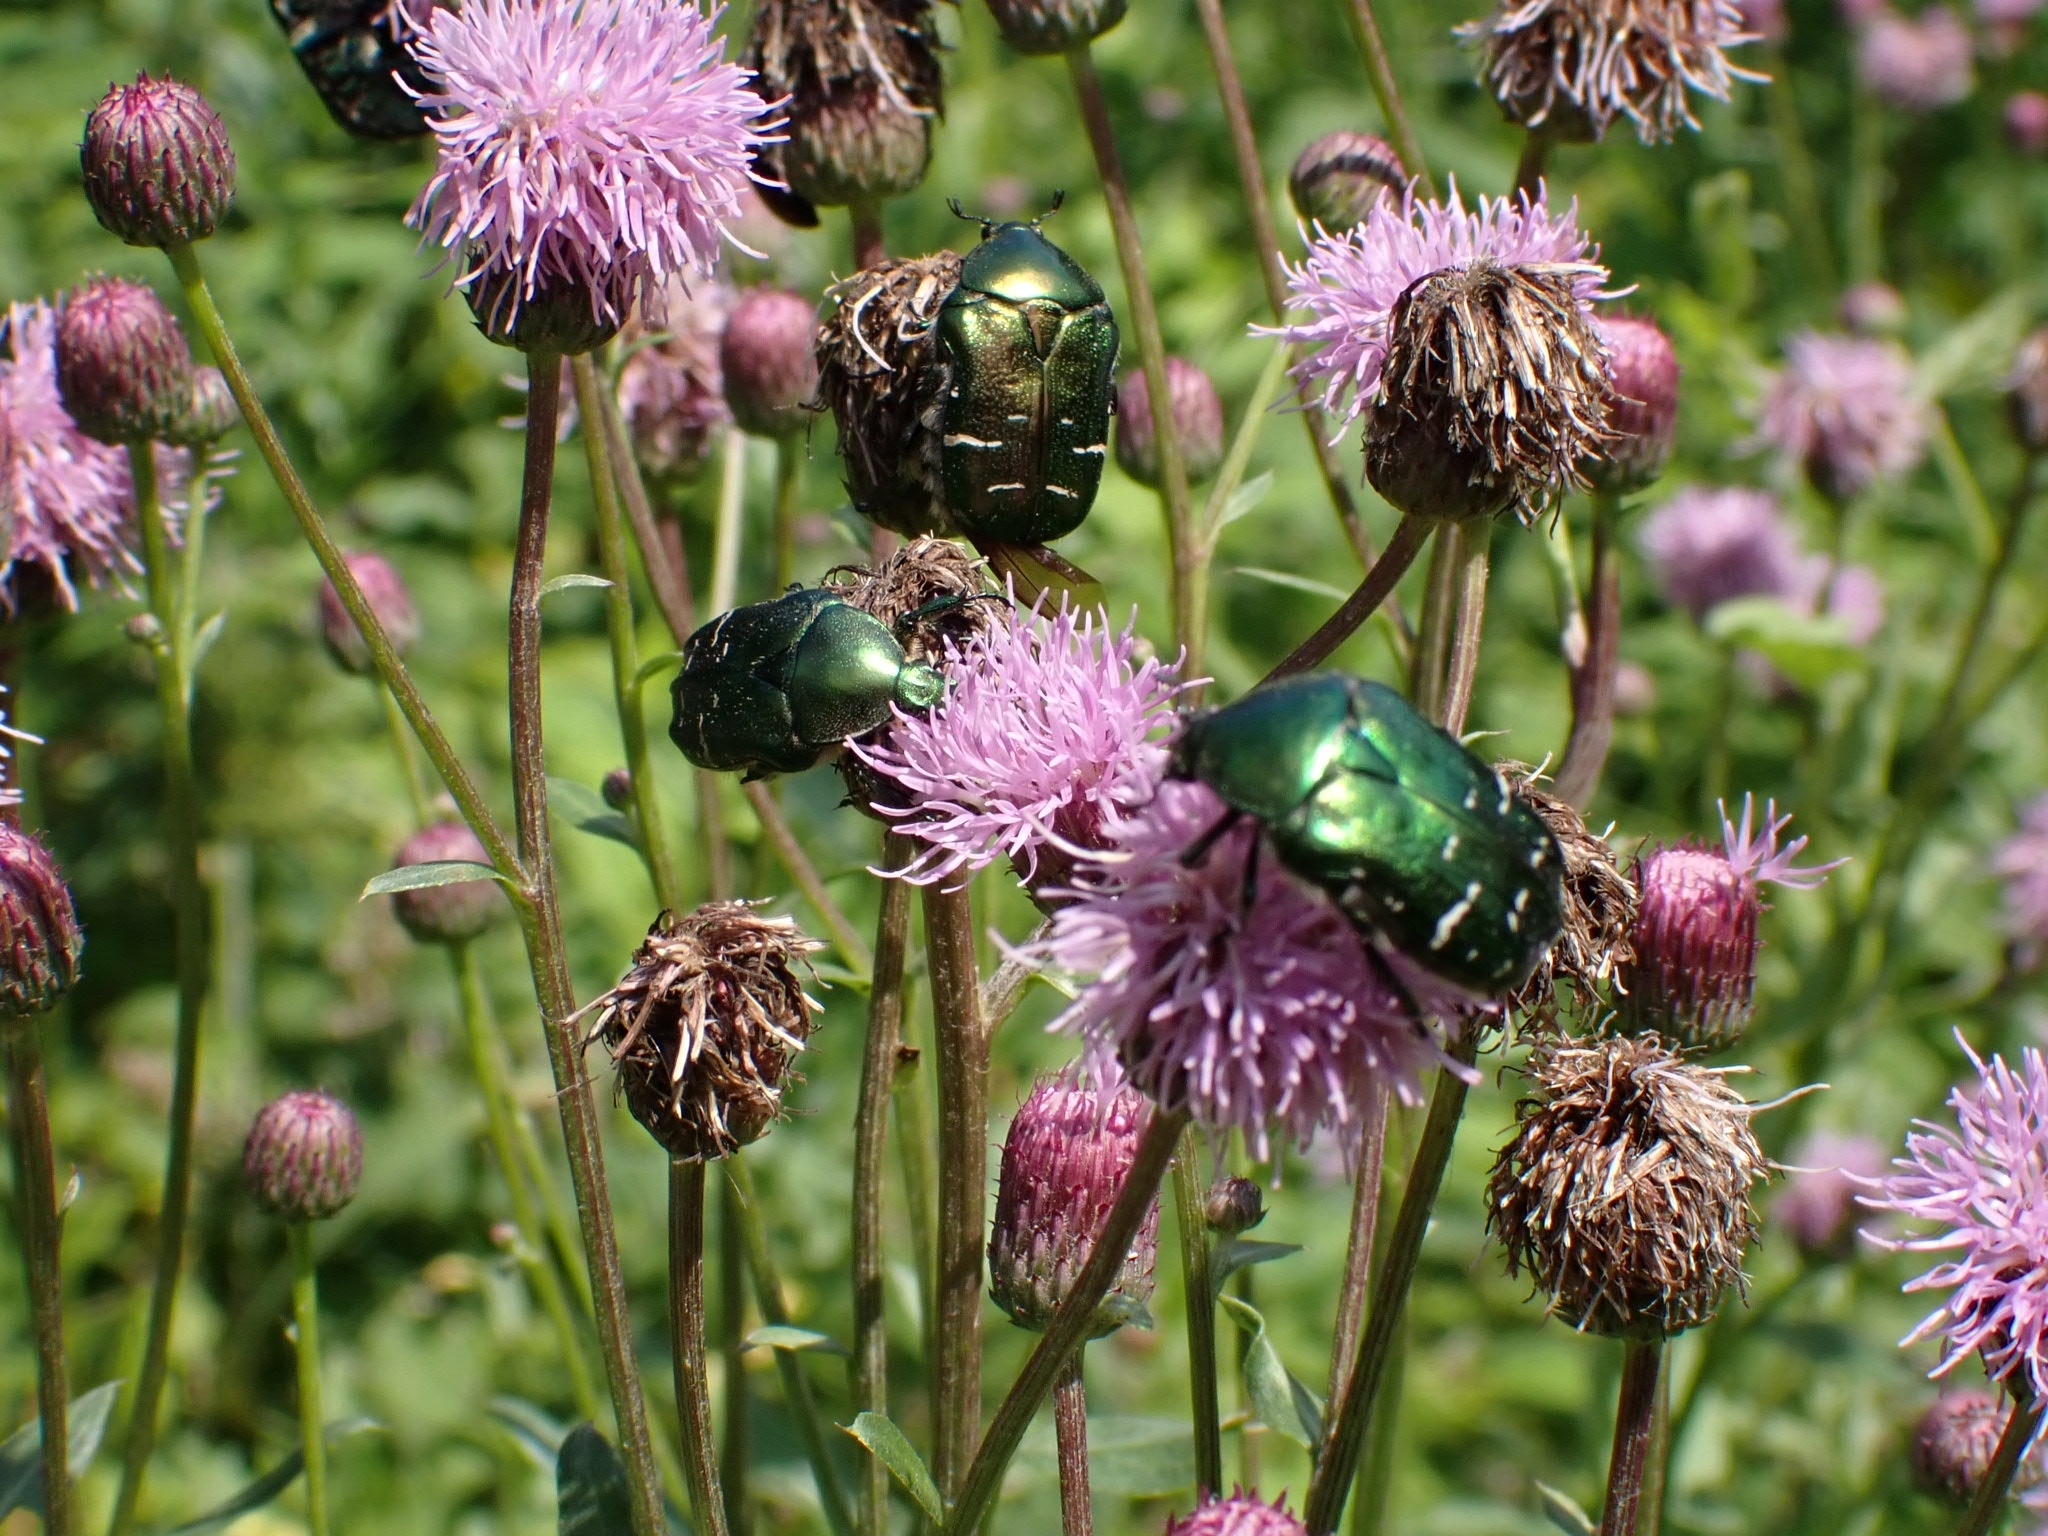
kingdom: Animalia
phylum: Arthropoda
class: Insecta
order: Coleoptera
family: Scarabaeidae
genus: Cetonia
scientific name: Cetonia aurata
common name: Rose chafer
